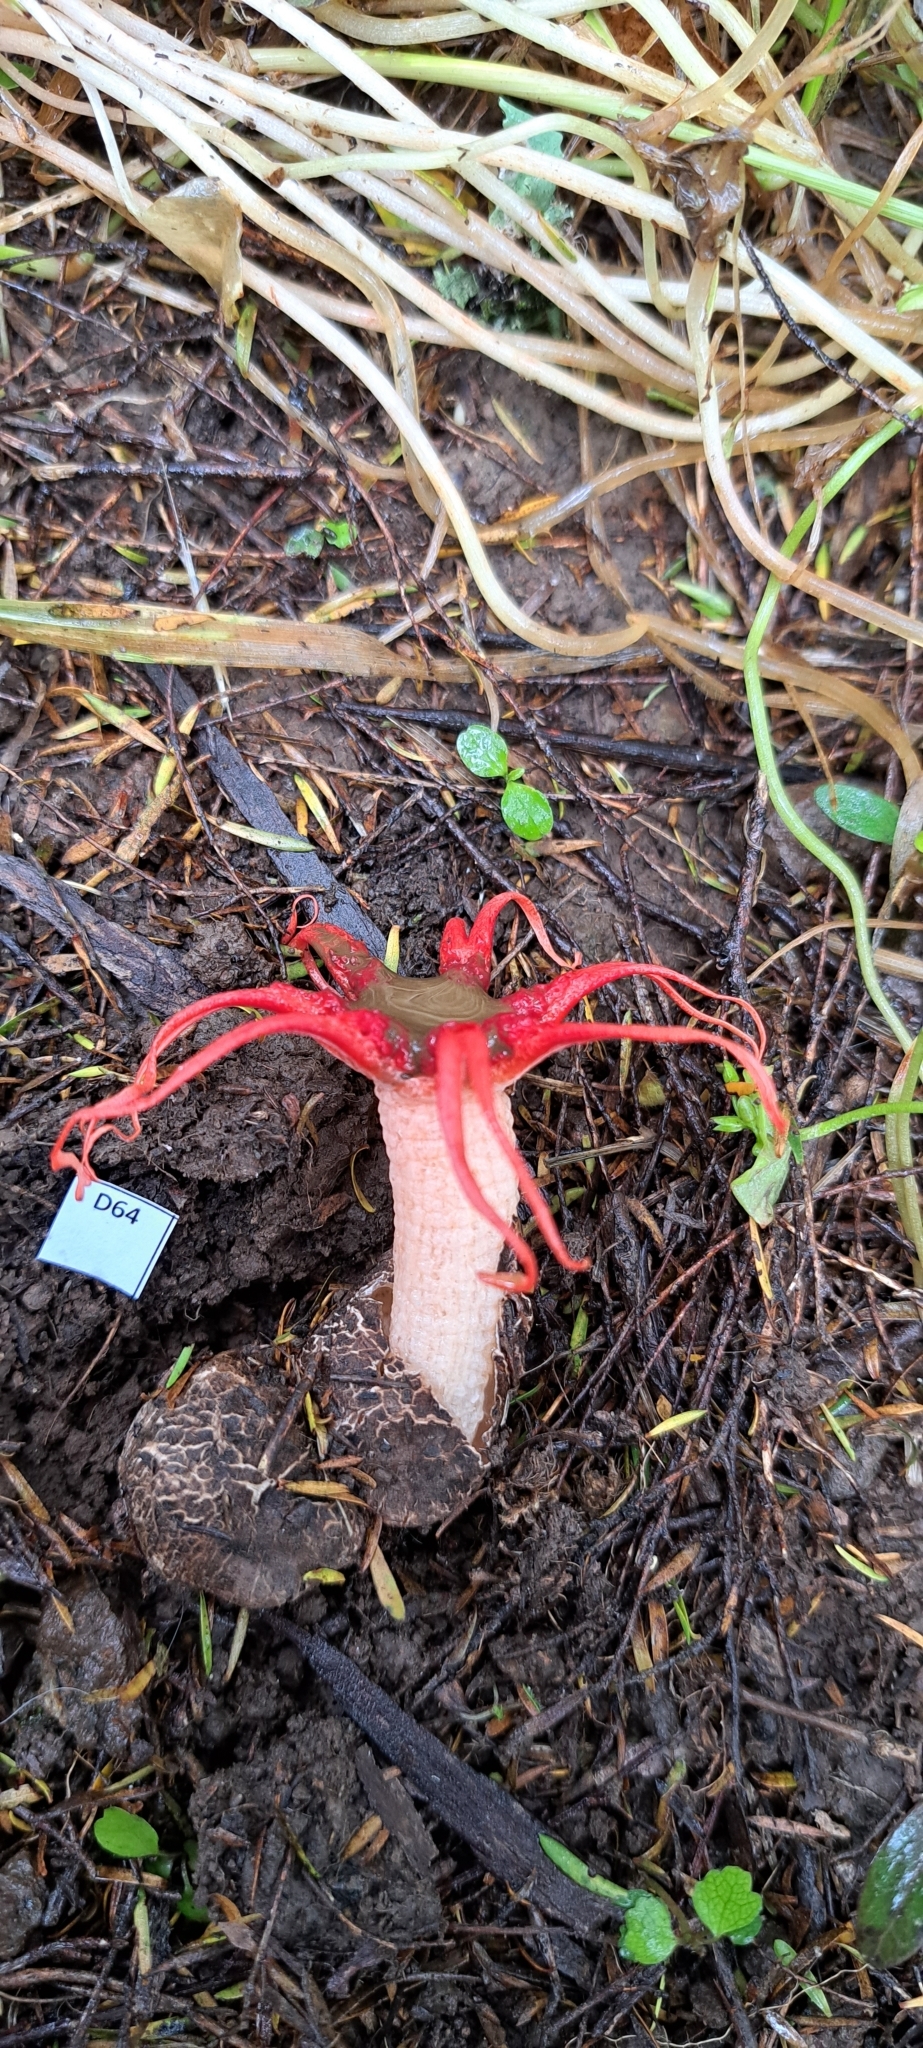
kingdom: Fungi
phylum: Basidiomycota
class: Agaricomycetes
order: Phallales
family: Phallaceae
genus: Aseroe
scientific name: Aseroe rubra
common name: Starfish fungus
